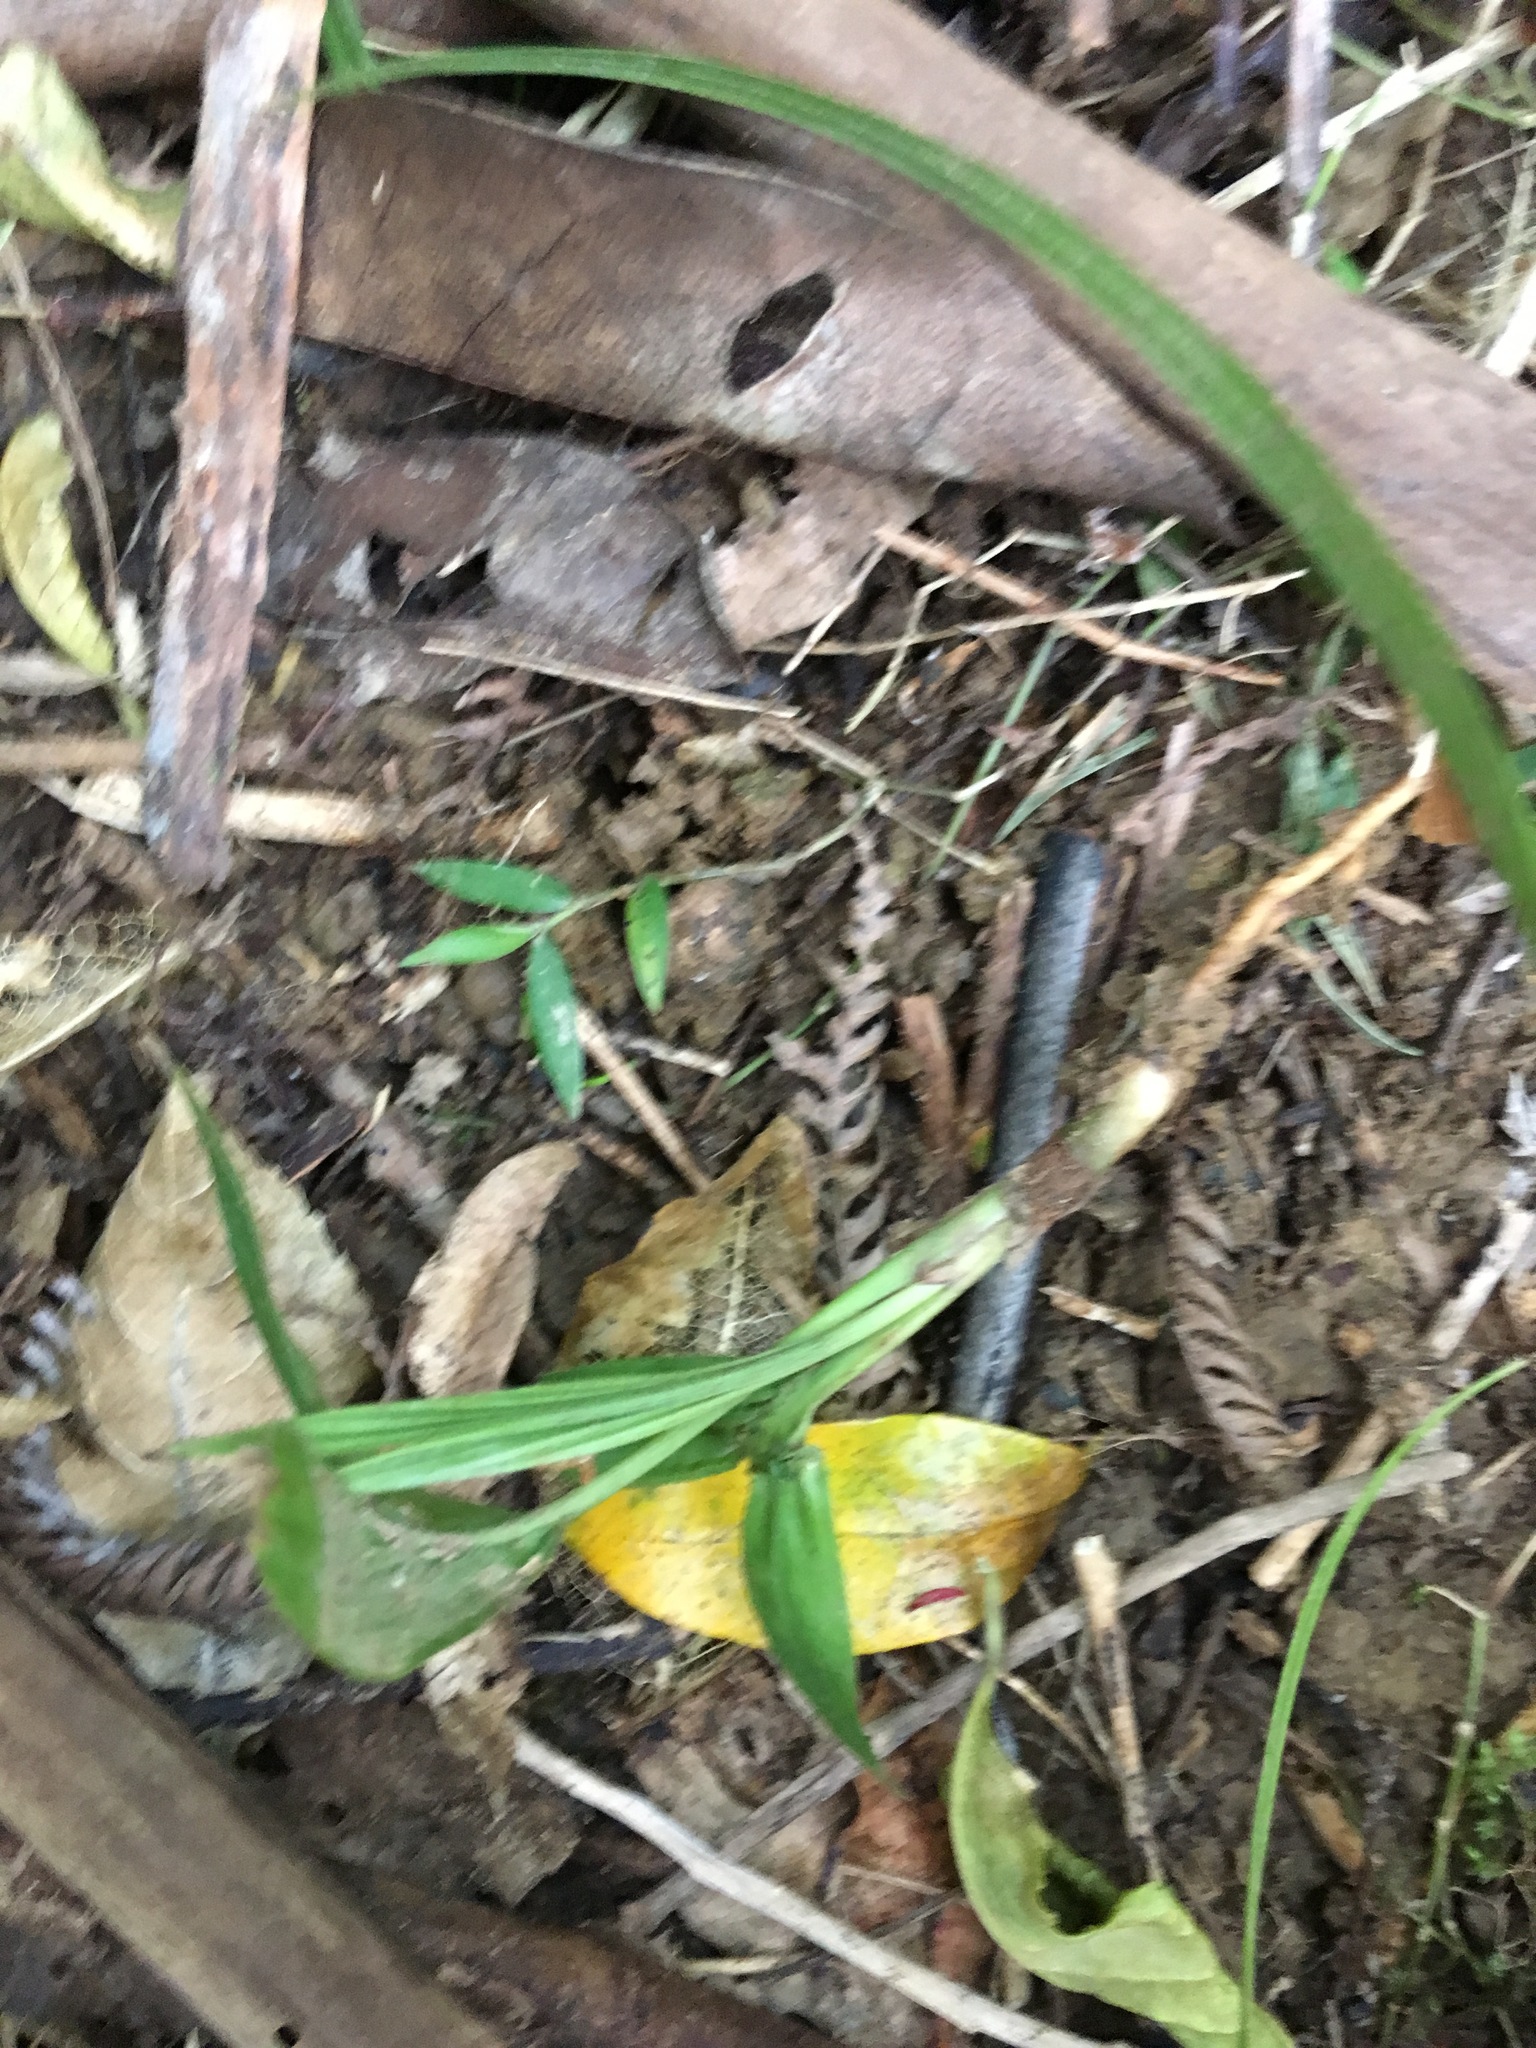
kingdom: Plantae
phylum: Tracheophyta
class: Liliopsida
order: Arecales
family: Arecaceae
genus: Archontophoenix
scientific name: Archontophoenix cunninghamiana
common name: Piccabeen bangalow palm
